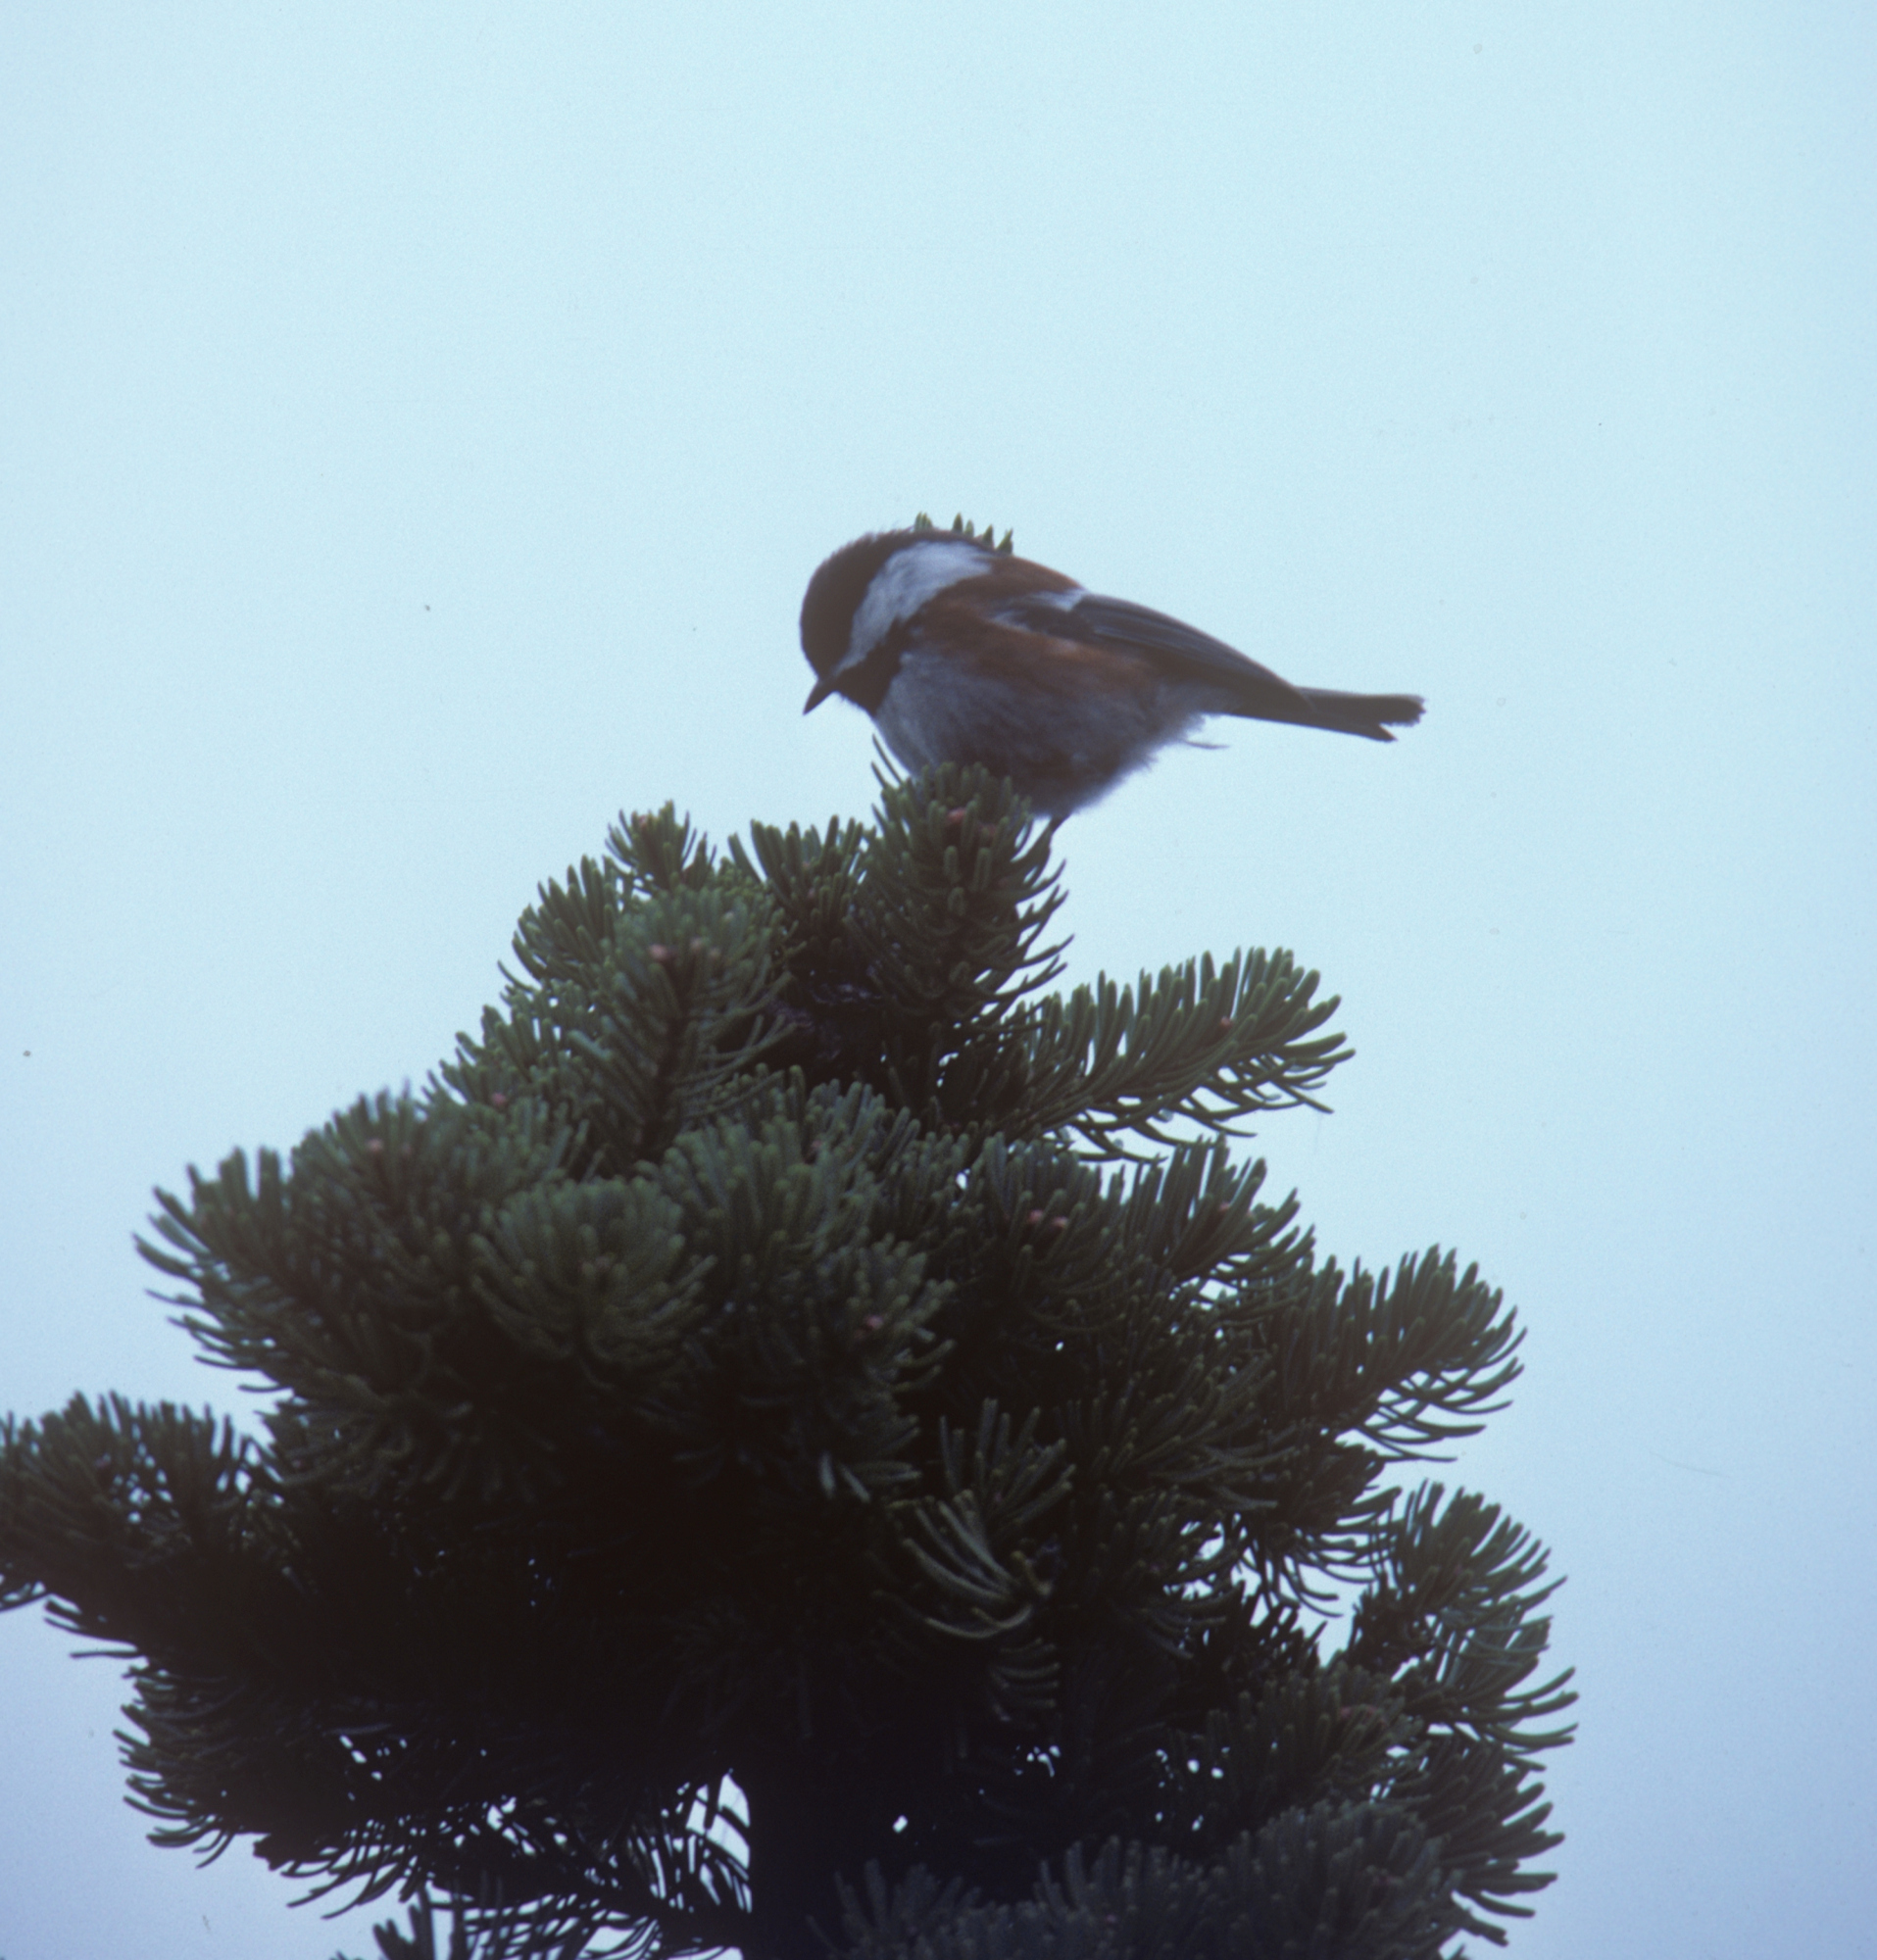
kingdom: Animalia
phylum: Chordata
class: Aves
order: Passeriformes
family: Paridae
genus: Poecile
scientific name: Poecile rufescens
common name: Chestnut-backed chickadee
